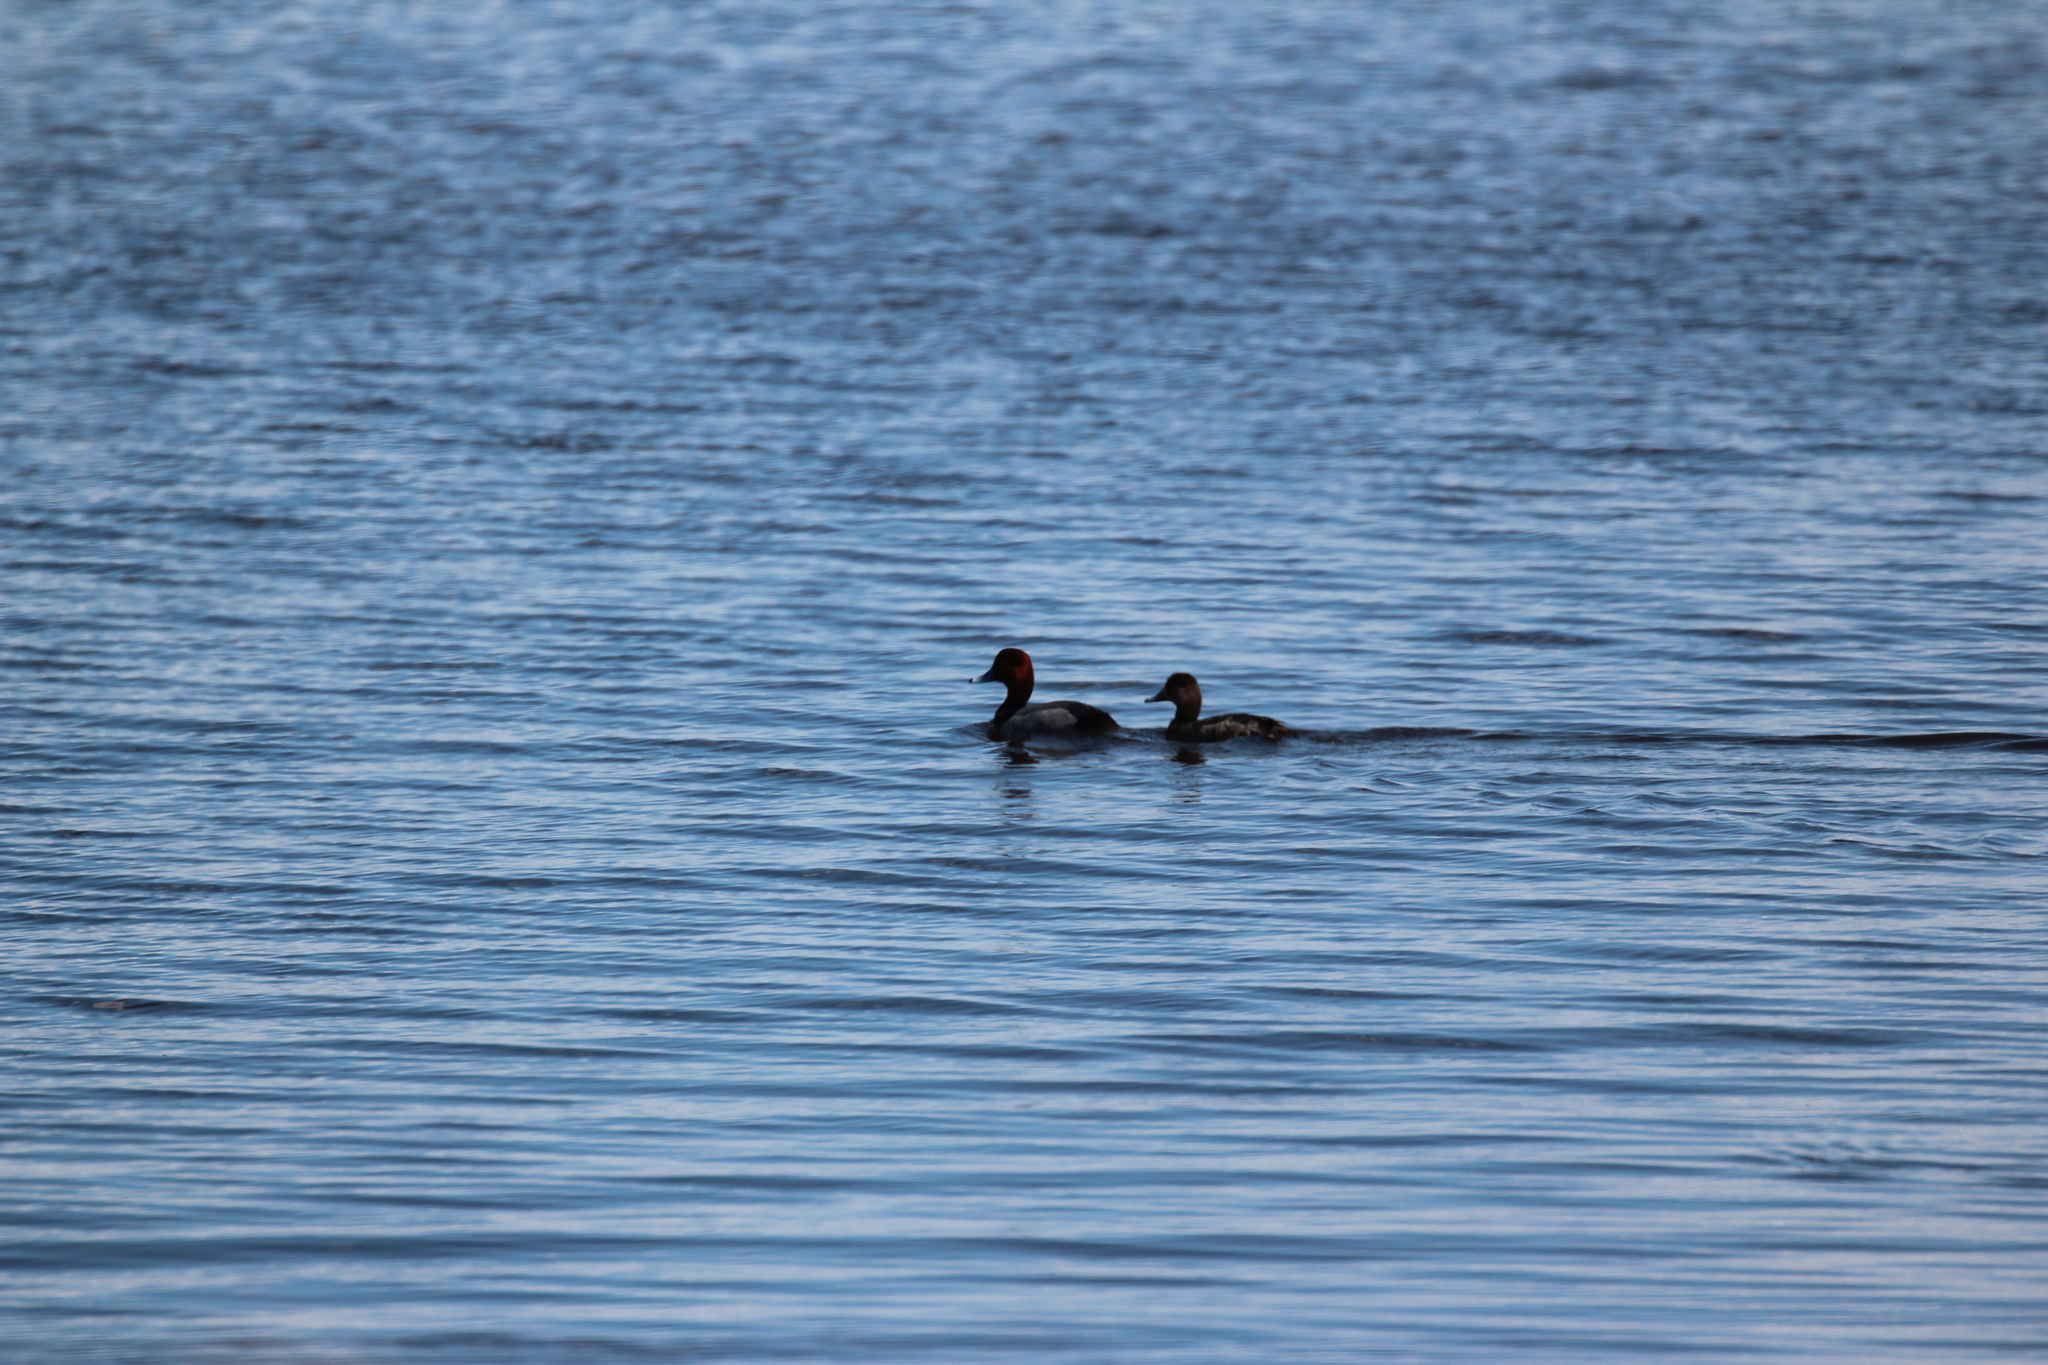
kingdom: Animalia
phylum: Chordata
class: Aves
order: Anseriformes
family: Anatidae
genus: Aythya
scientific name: Aythya americana
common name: Redhead
